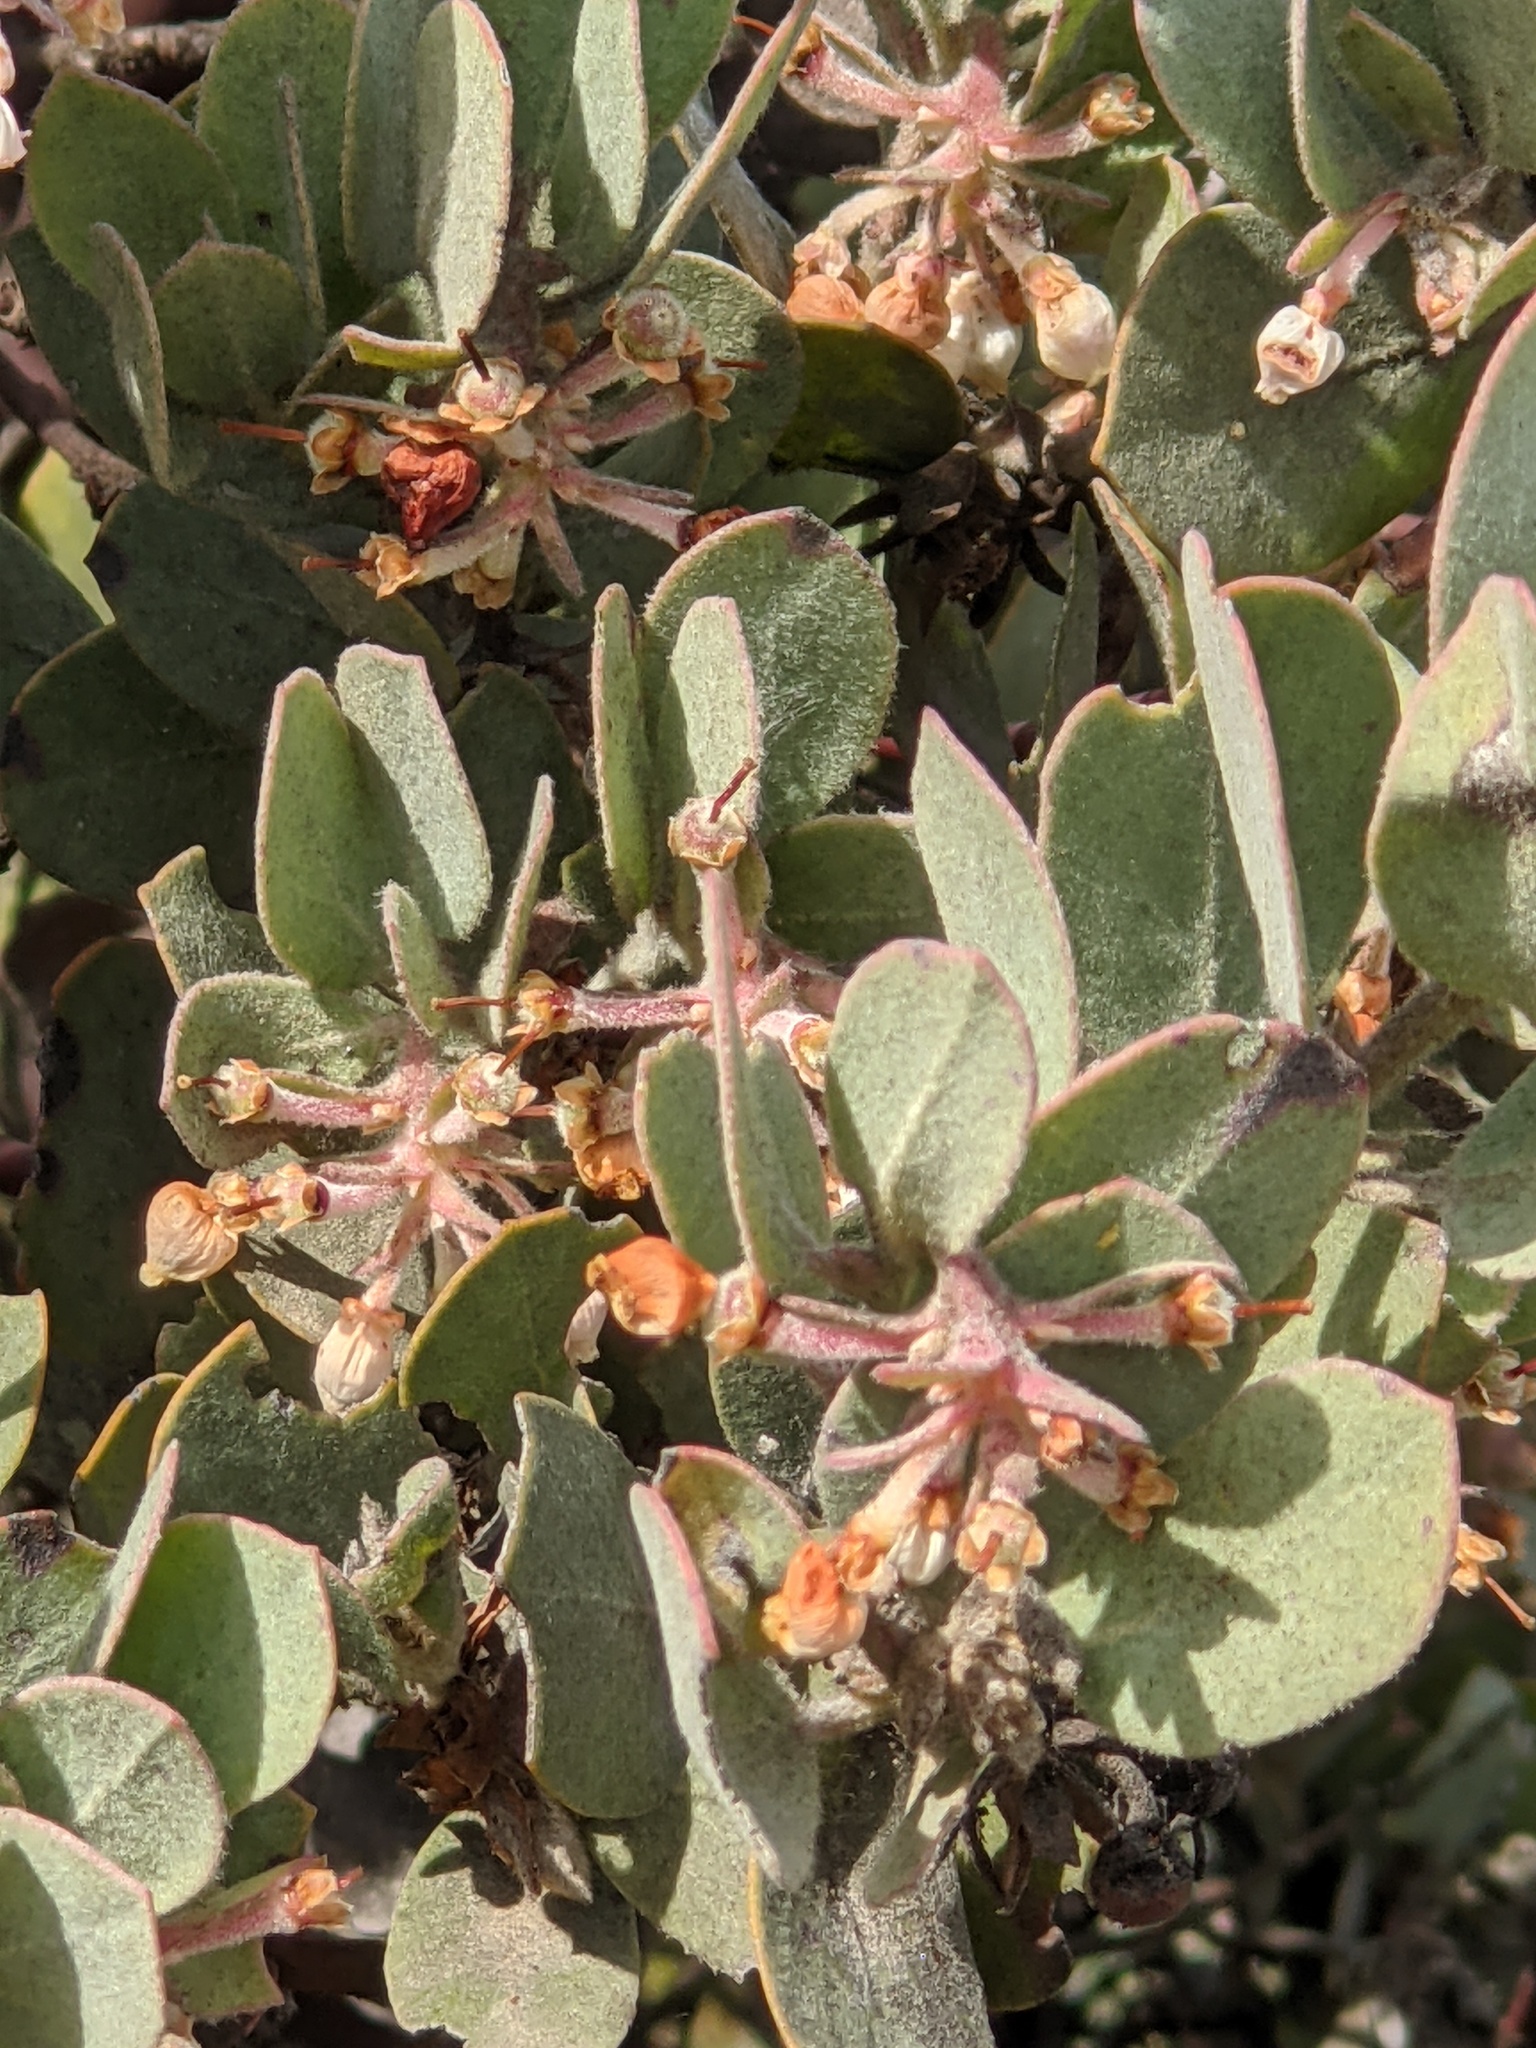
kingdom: Plantae
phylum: Tracheophyta
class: Magnoliopsida
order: Ericales
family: Ericaceae
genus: Arctostaphylos
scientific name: Arctostaphylos canescens
